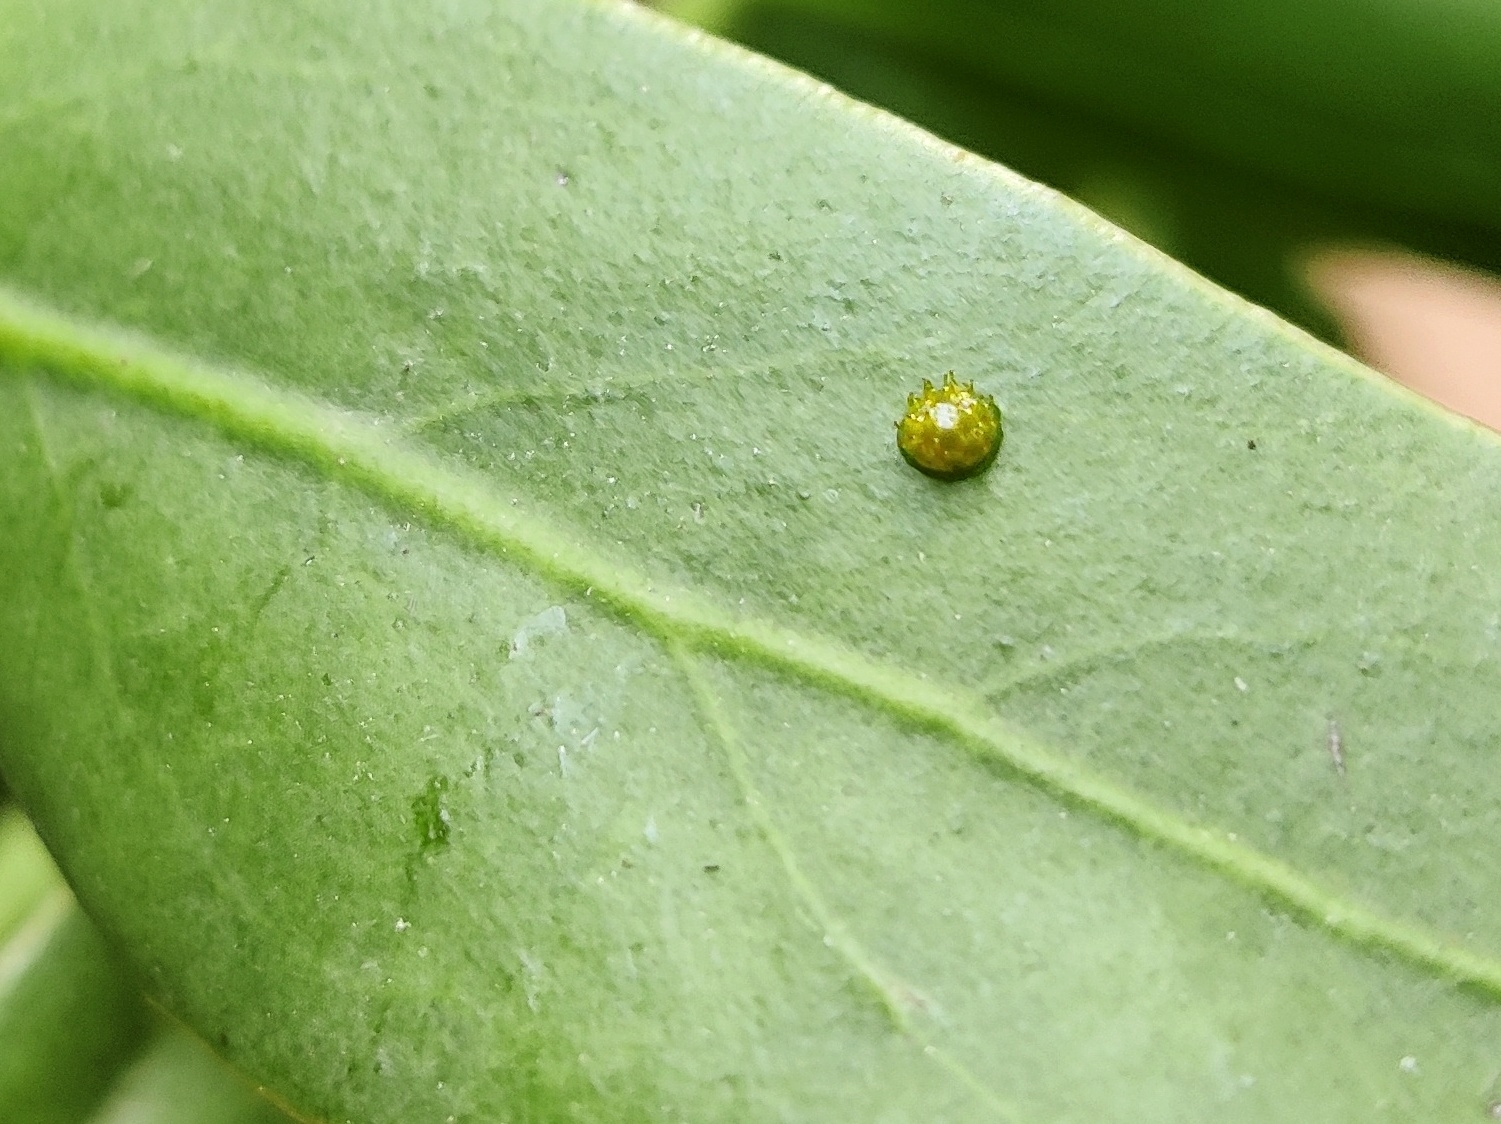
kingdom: Animalia
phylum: Arthropoda
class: Insecta
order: Lepidoptera
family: Nymphalidae
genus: Euthalia
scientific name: Euthalia lubentina
